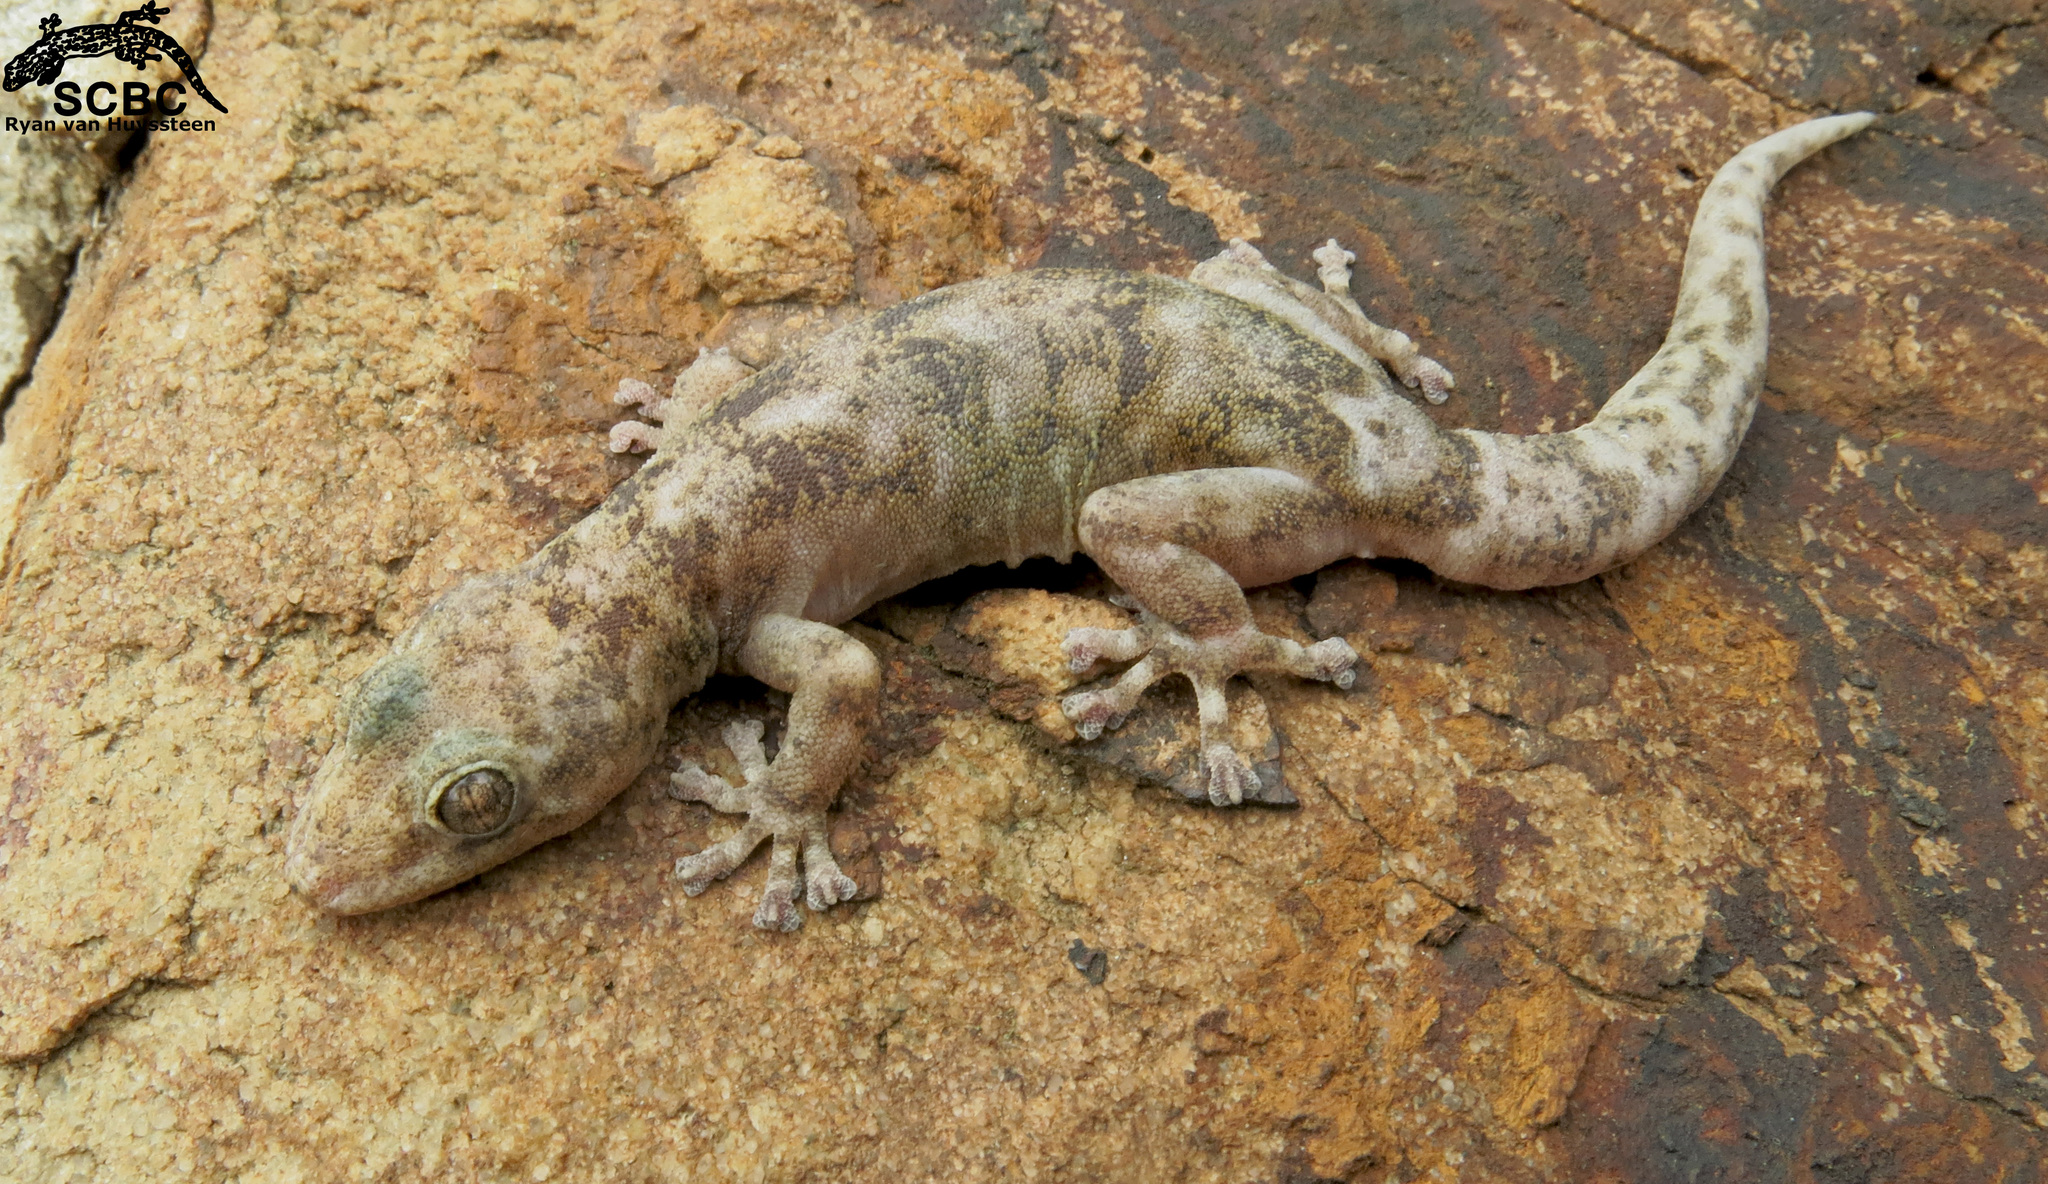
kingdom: Animalia
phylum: Chordata
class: Squamata
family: Gekkonidae
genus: Afroedura
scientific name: Afroedura multiporis
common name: Multipored rock gecko
